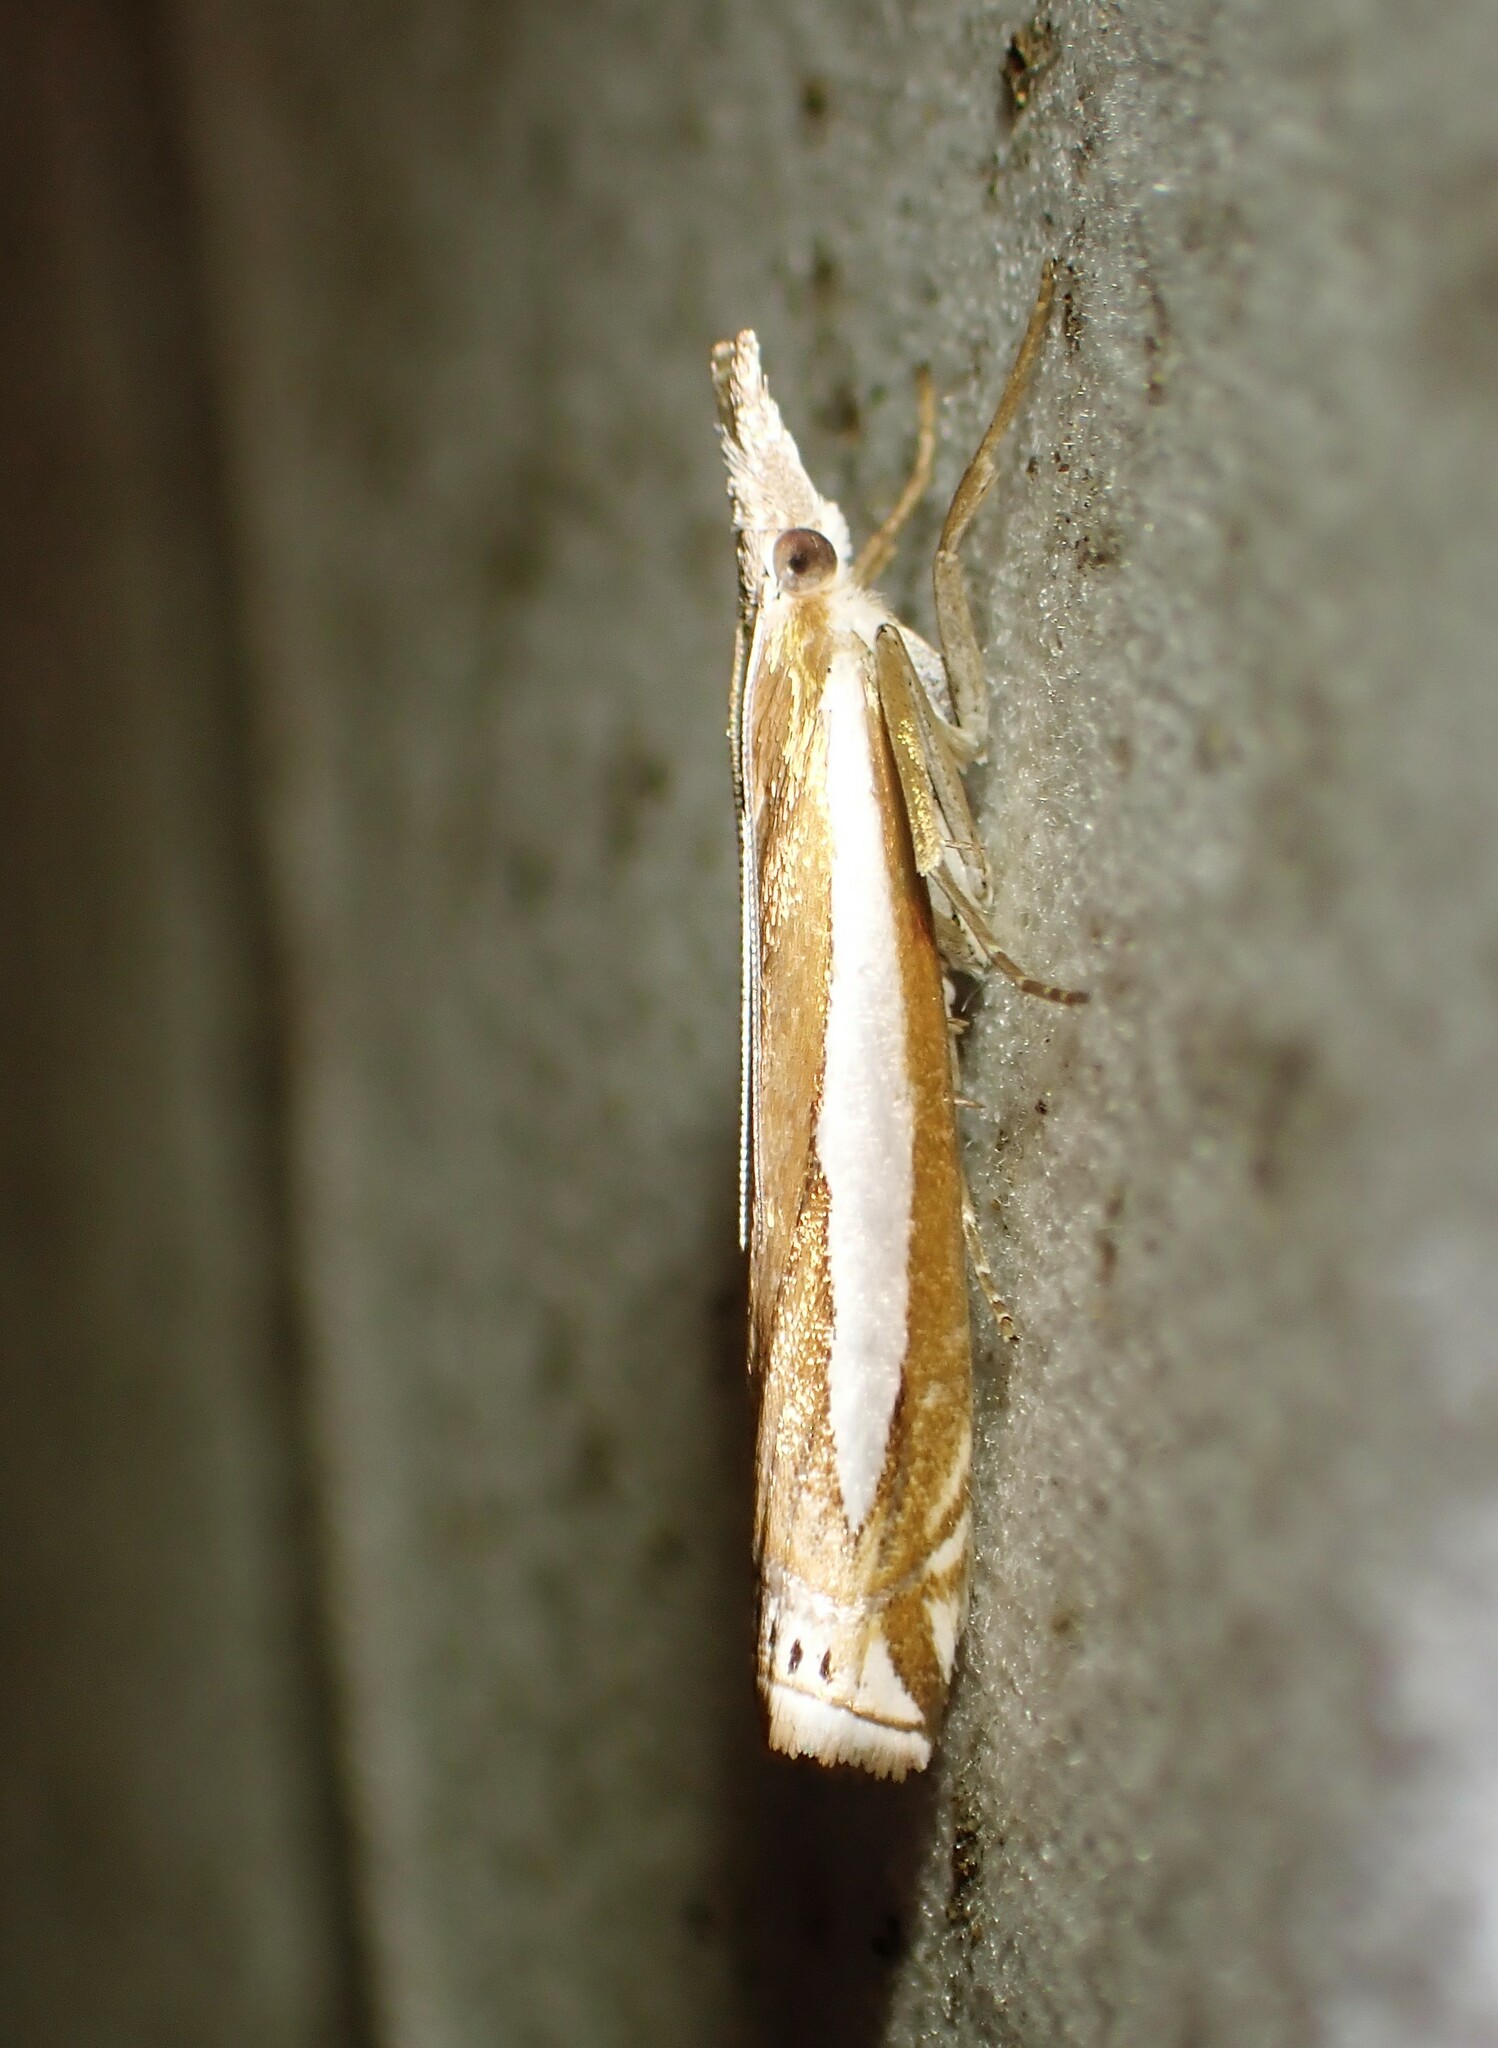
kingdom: Animalia
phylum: Arthropoda
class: Insecta
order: Lepidoptera
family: Crambidae
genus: Crambus
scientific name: Crambus praefectellus
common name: Common grass-veneer
